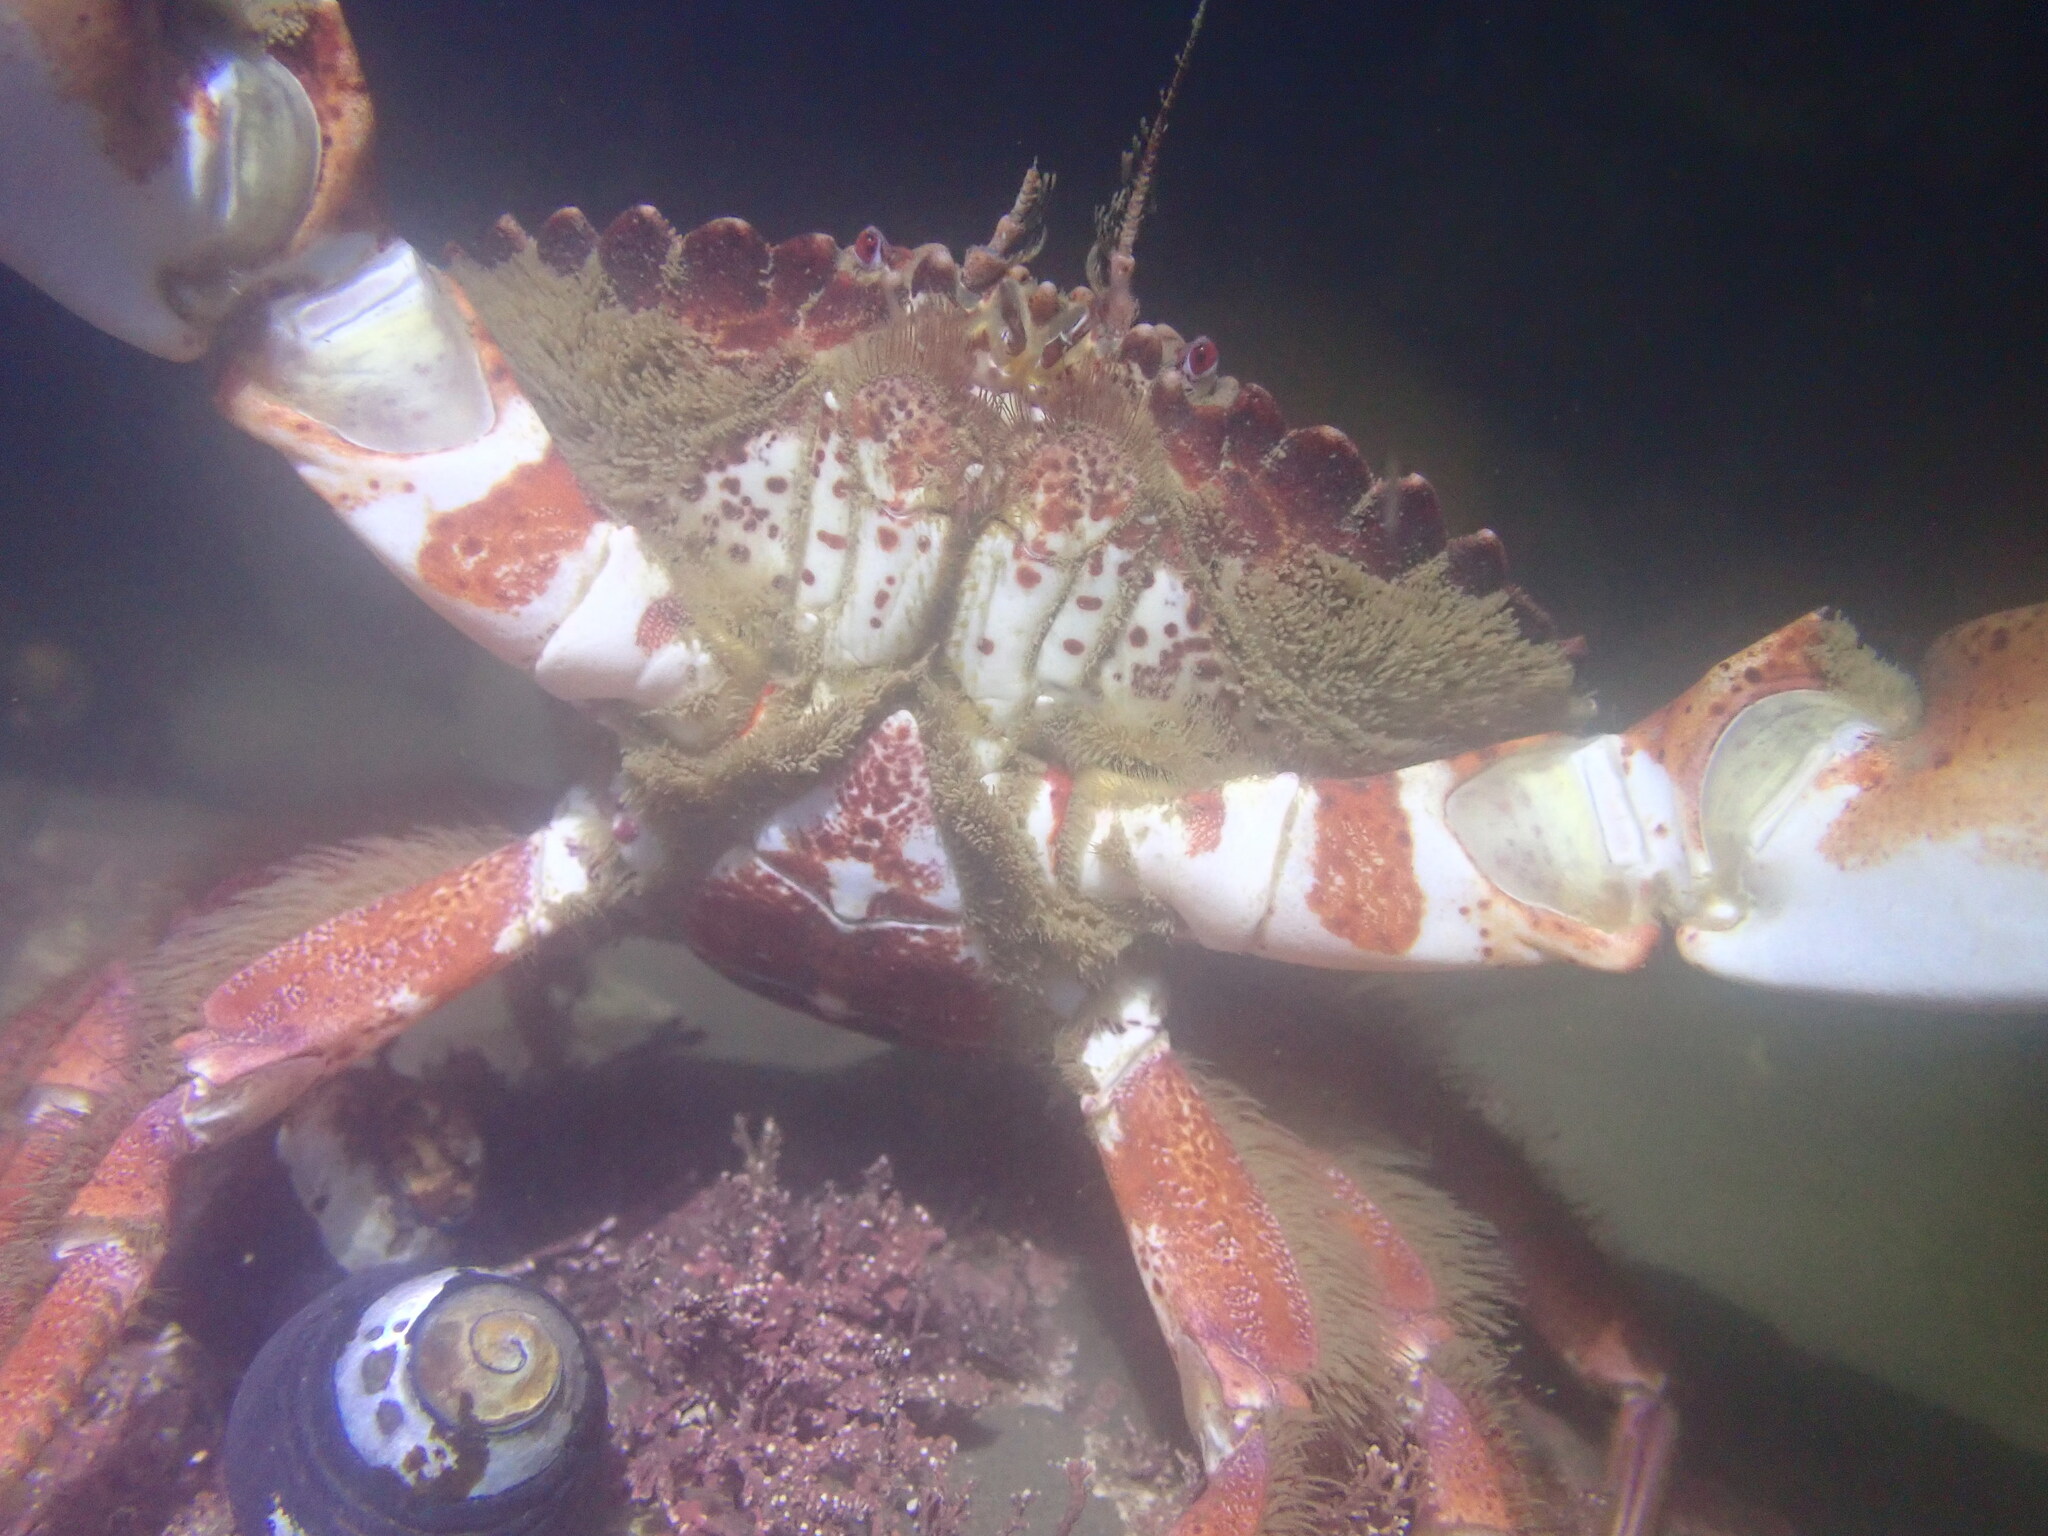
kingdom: Animalia
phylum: Arthropoda
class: Malacostraca
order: Decapoda
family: Cancridae
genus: Romaleon
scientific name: Romaleon antennarium
